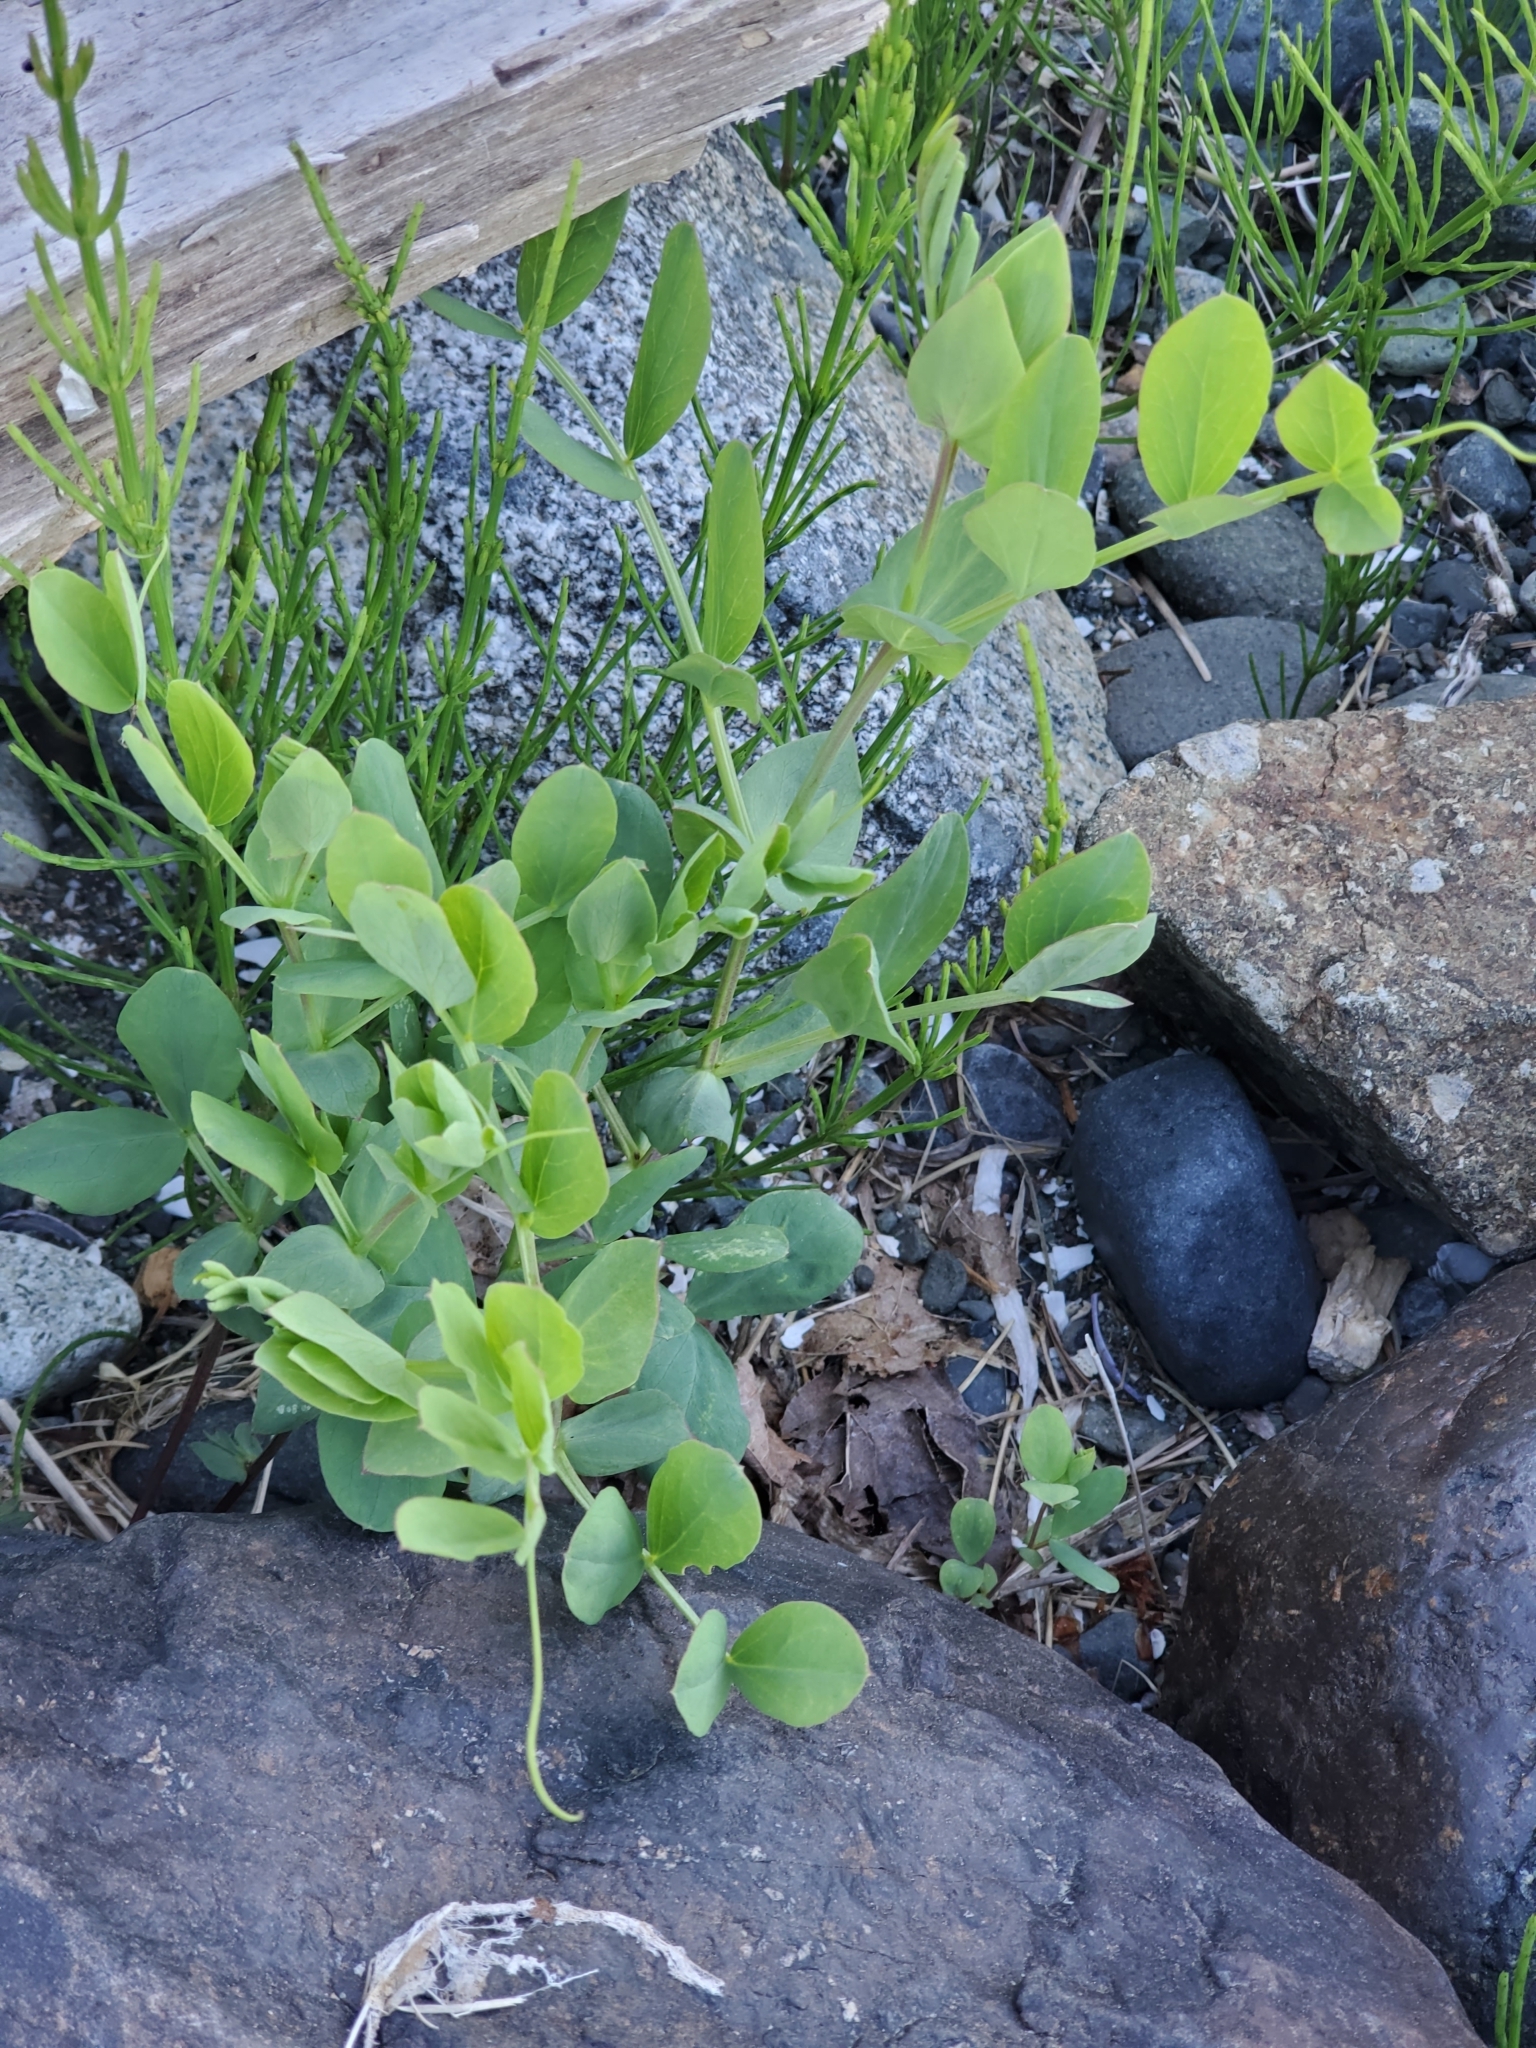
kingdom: Plantae
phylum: Tracheophyta
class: Magnoliopsida
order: Fabales
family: Fabaceae
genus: Lathyrus
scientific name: Lathyrus japonicus
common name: Sea pea
